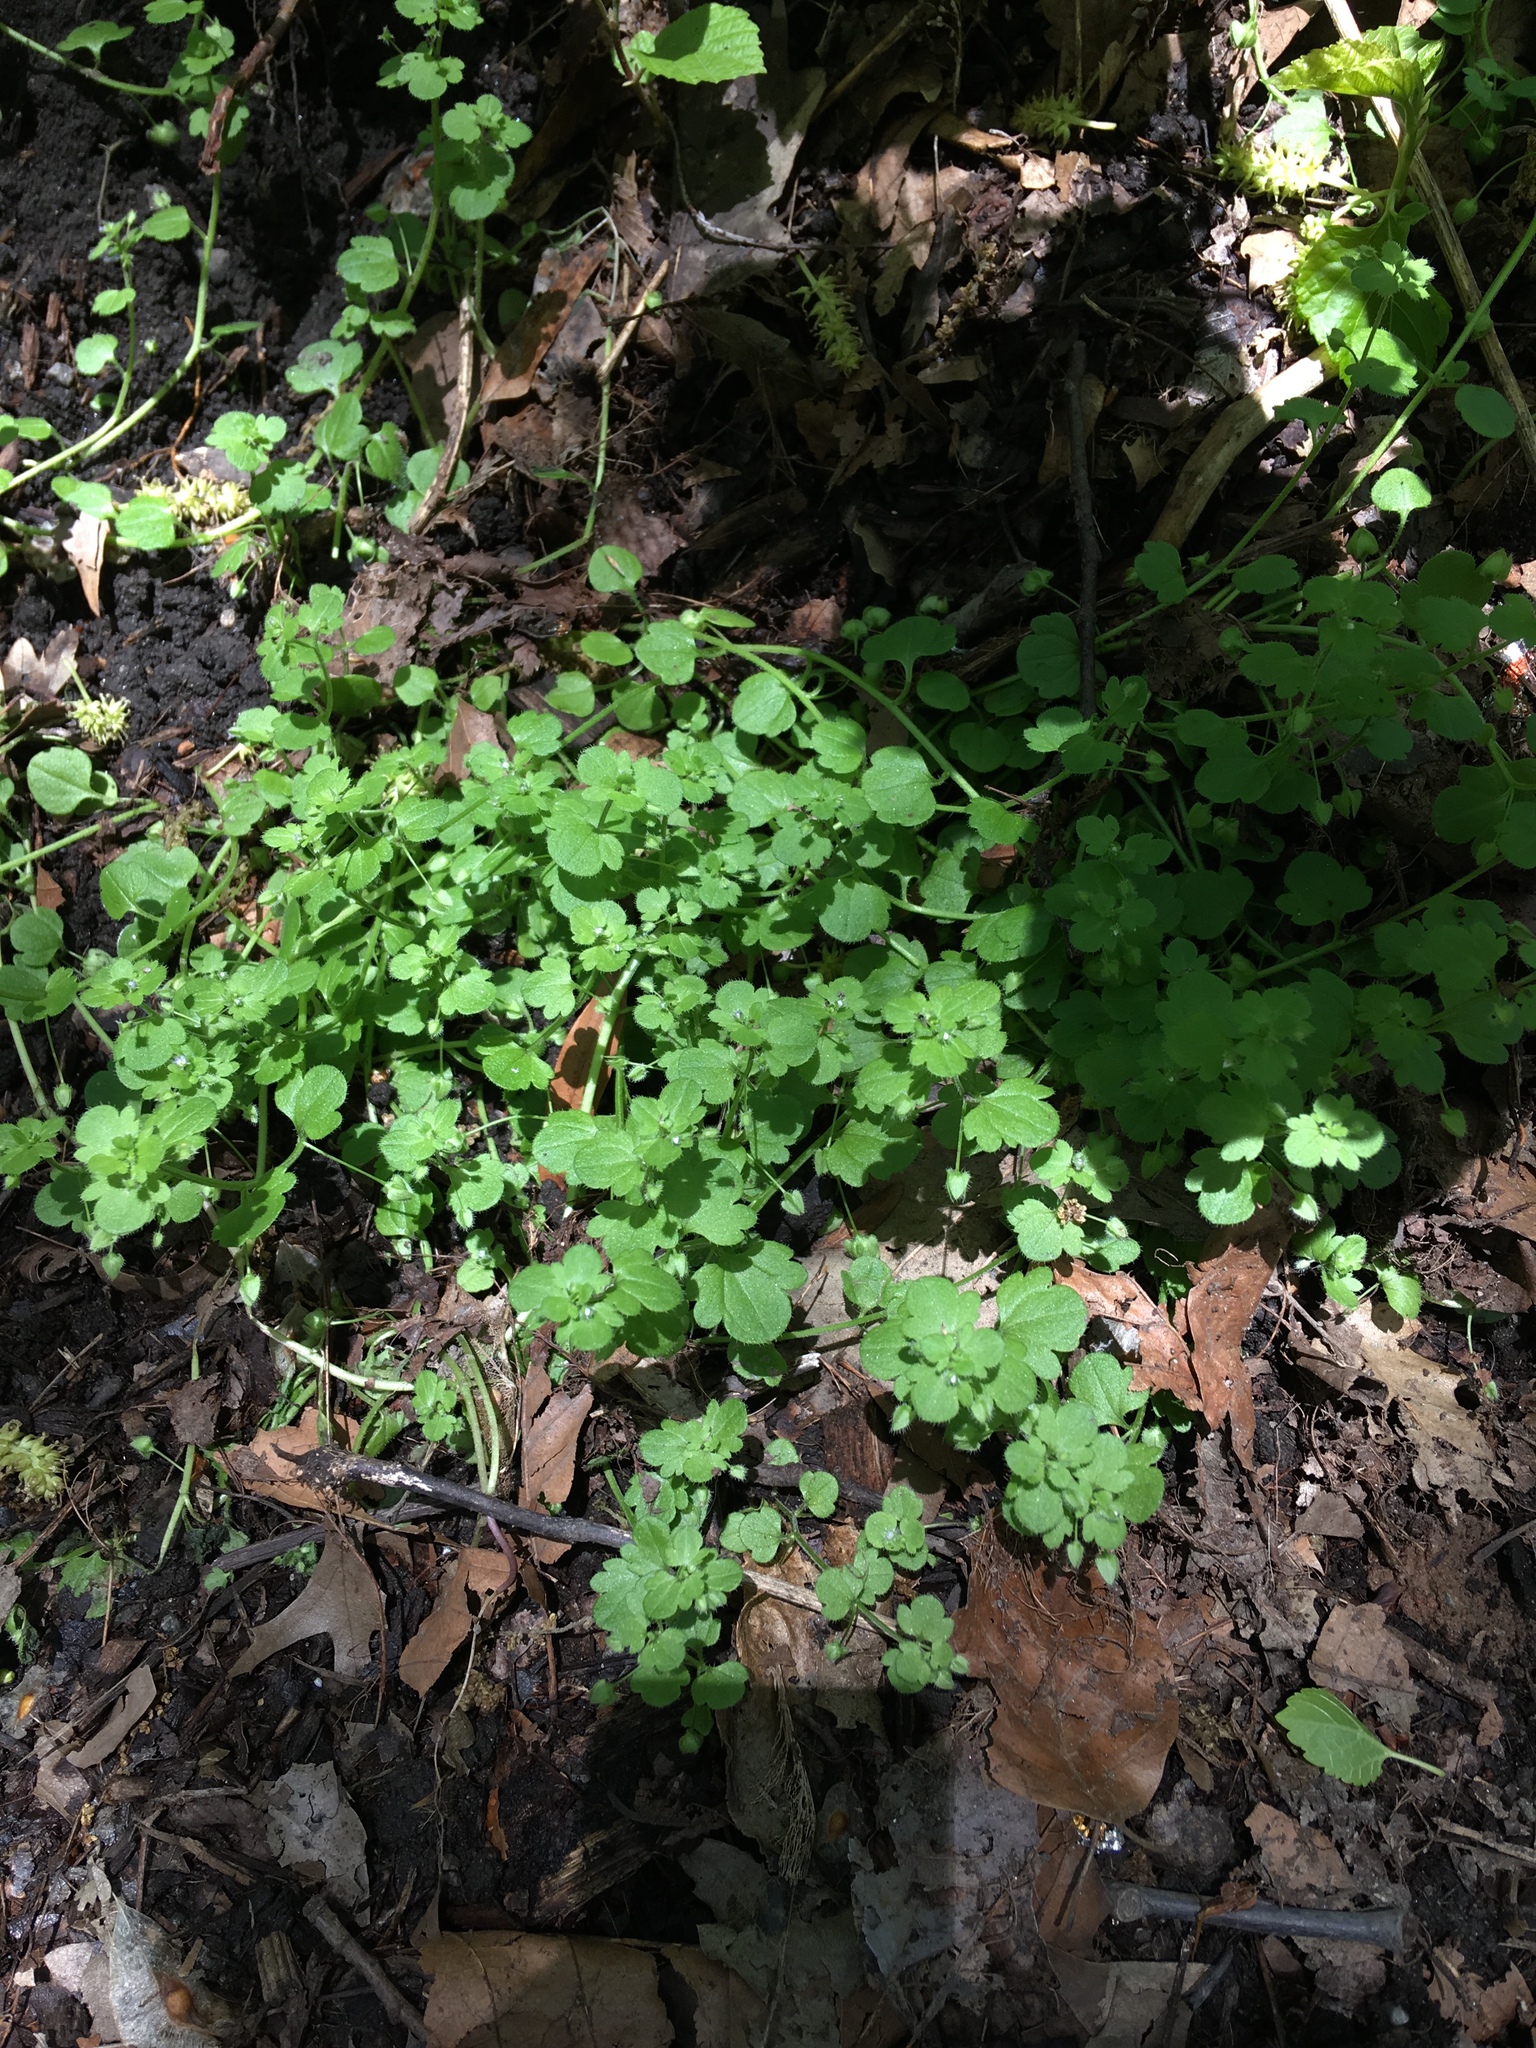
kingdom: Plantae
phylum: Tracheophyta
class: Magnoliopsida
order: Lamiales
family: Plantaginaceae
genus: Veronica
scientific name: Veronica hederifolia
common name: Ivy-leaved speedwell
